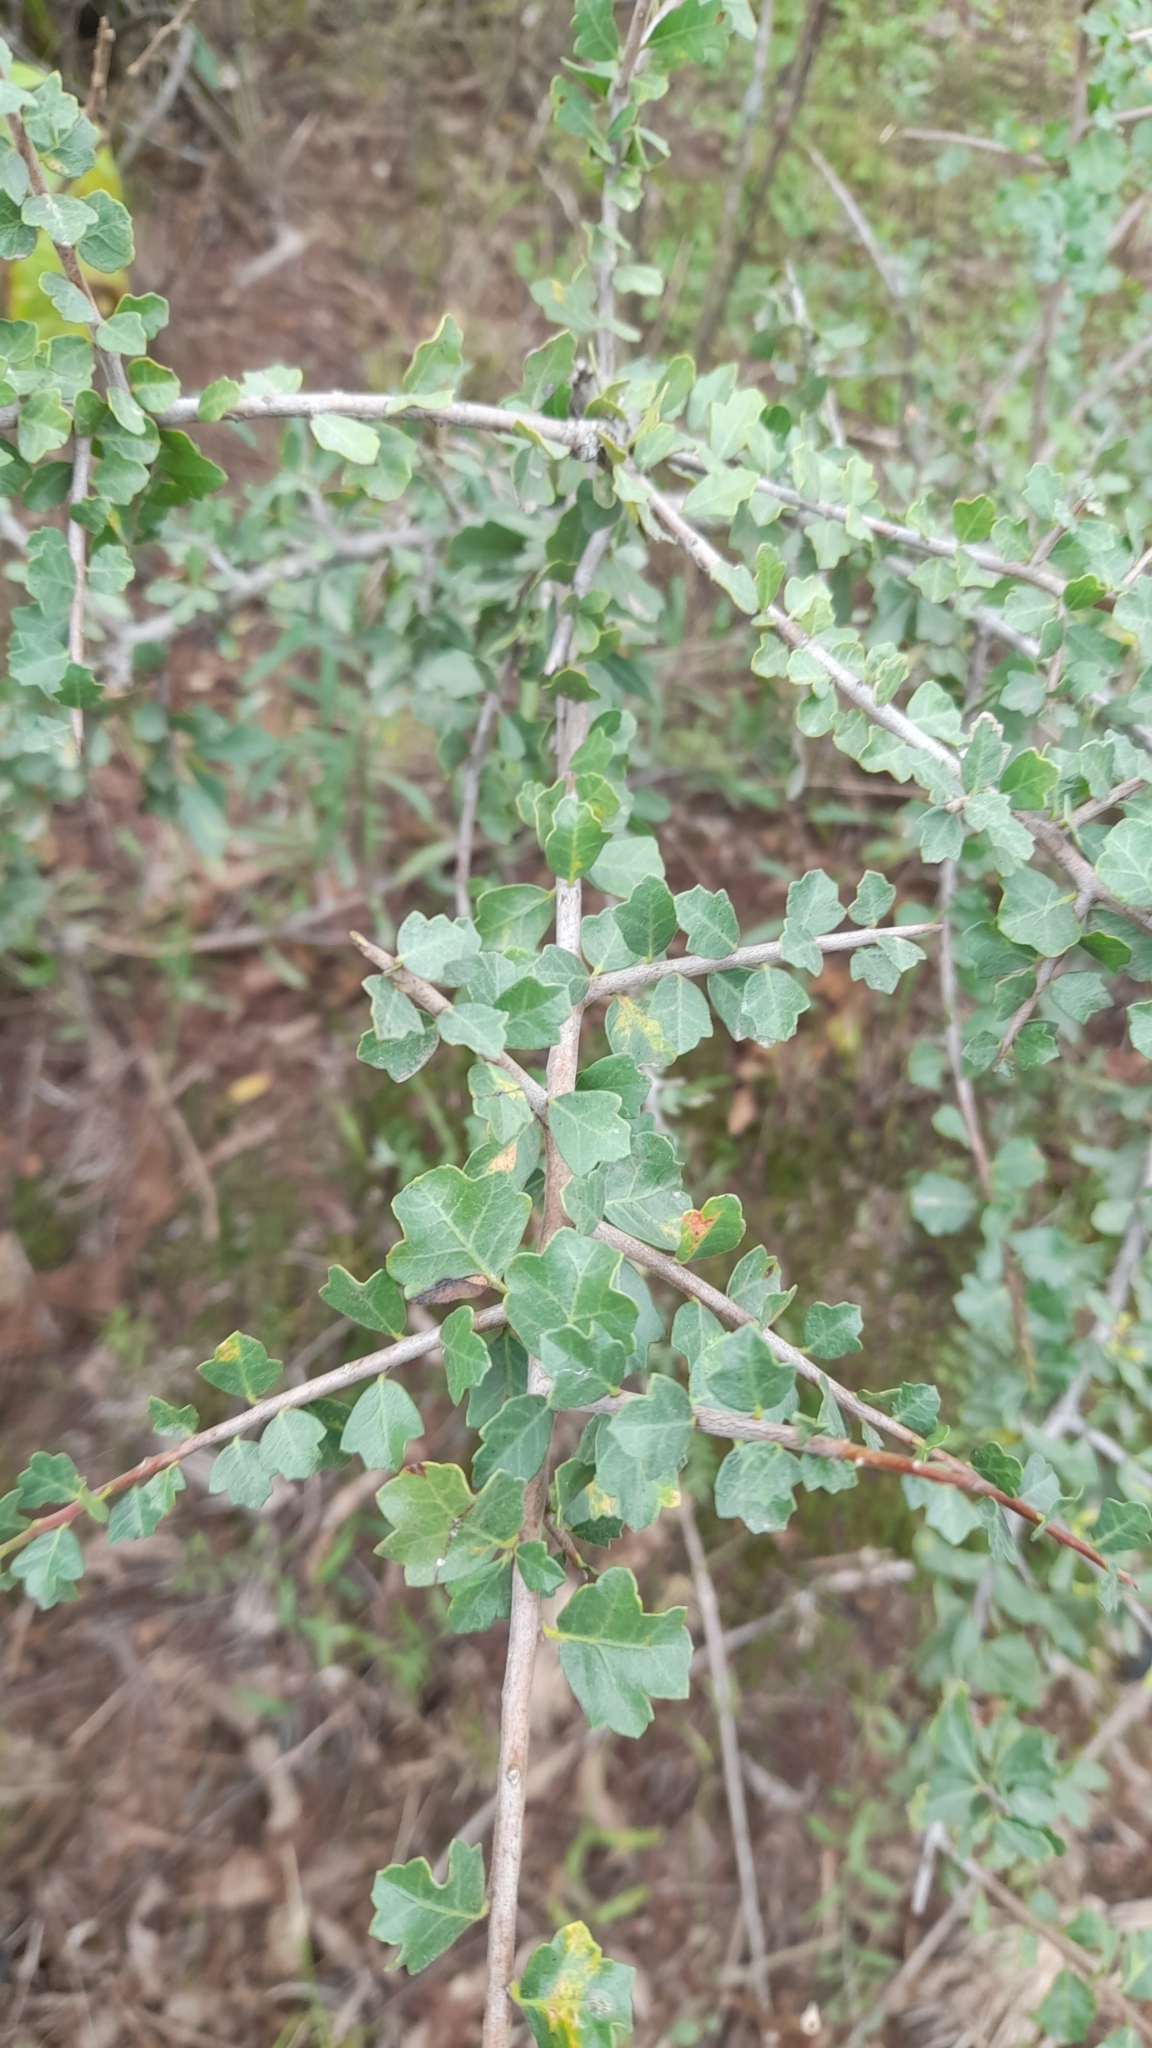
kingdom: Plantae
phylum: Tracheophyta
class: Magnoliopsida
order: Sapindales
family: Anacardiaceae
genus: Schinus
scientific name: Schinus fasciculata
